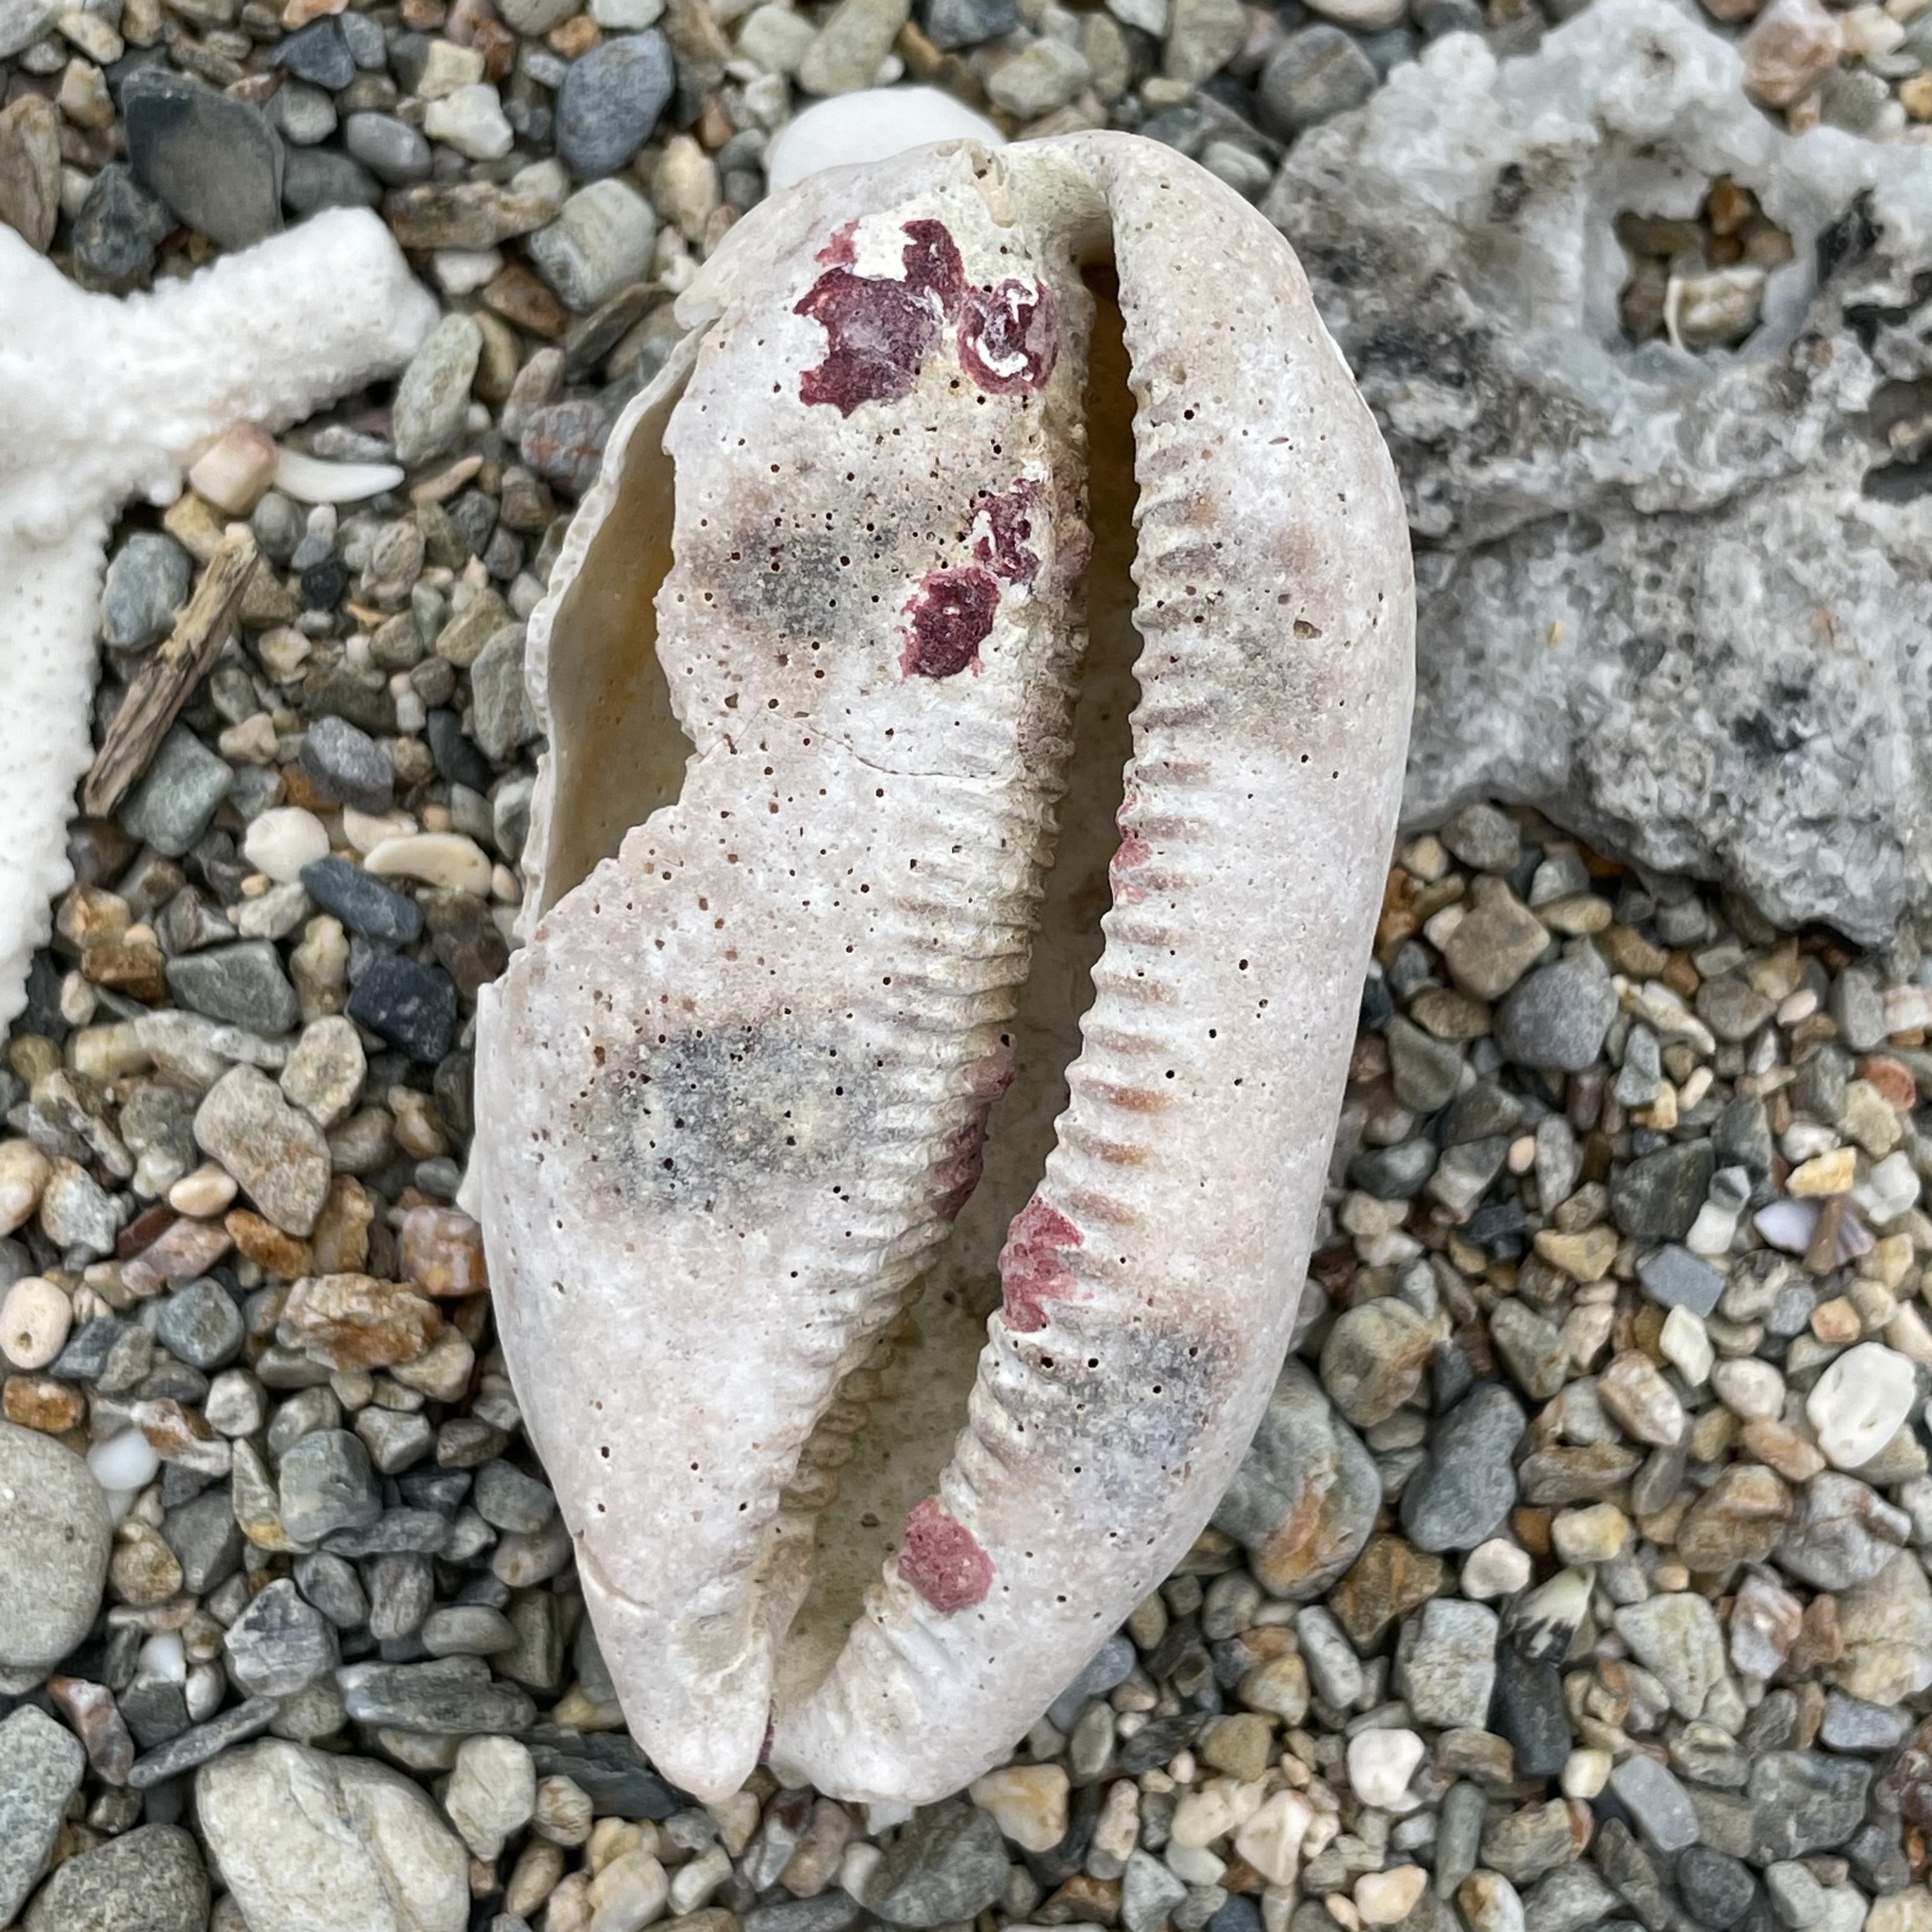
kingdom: Animalia
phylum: Mollusca
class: Gastropoda
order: Littorinimorpha
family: Cypraeidae
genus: Arestorides
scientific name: Arestorides argus
